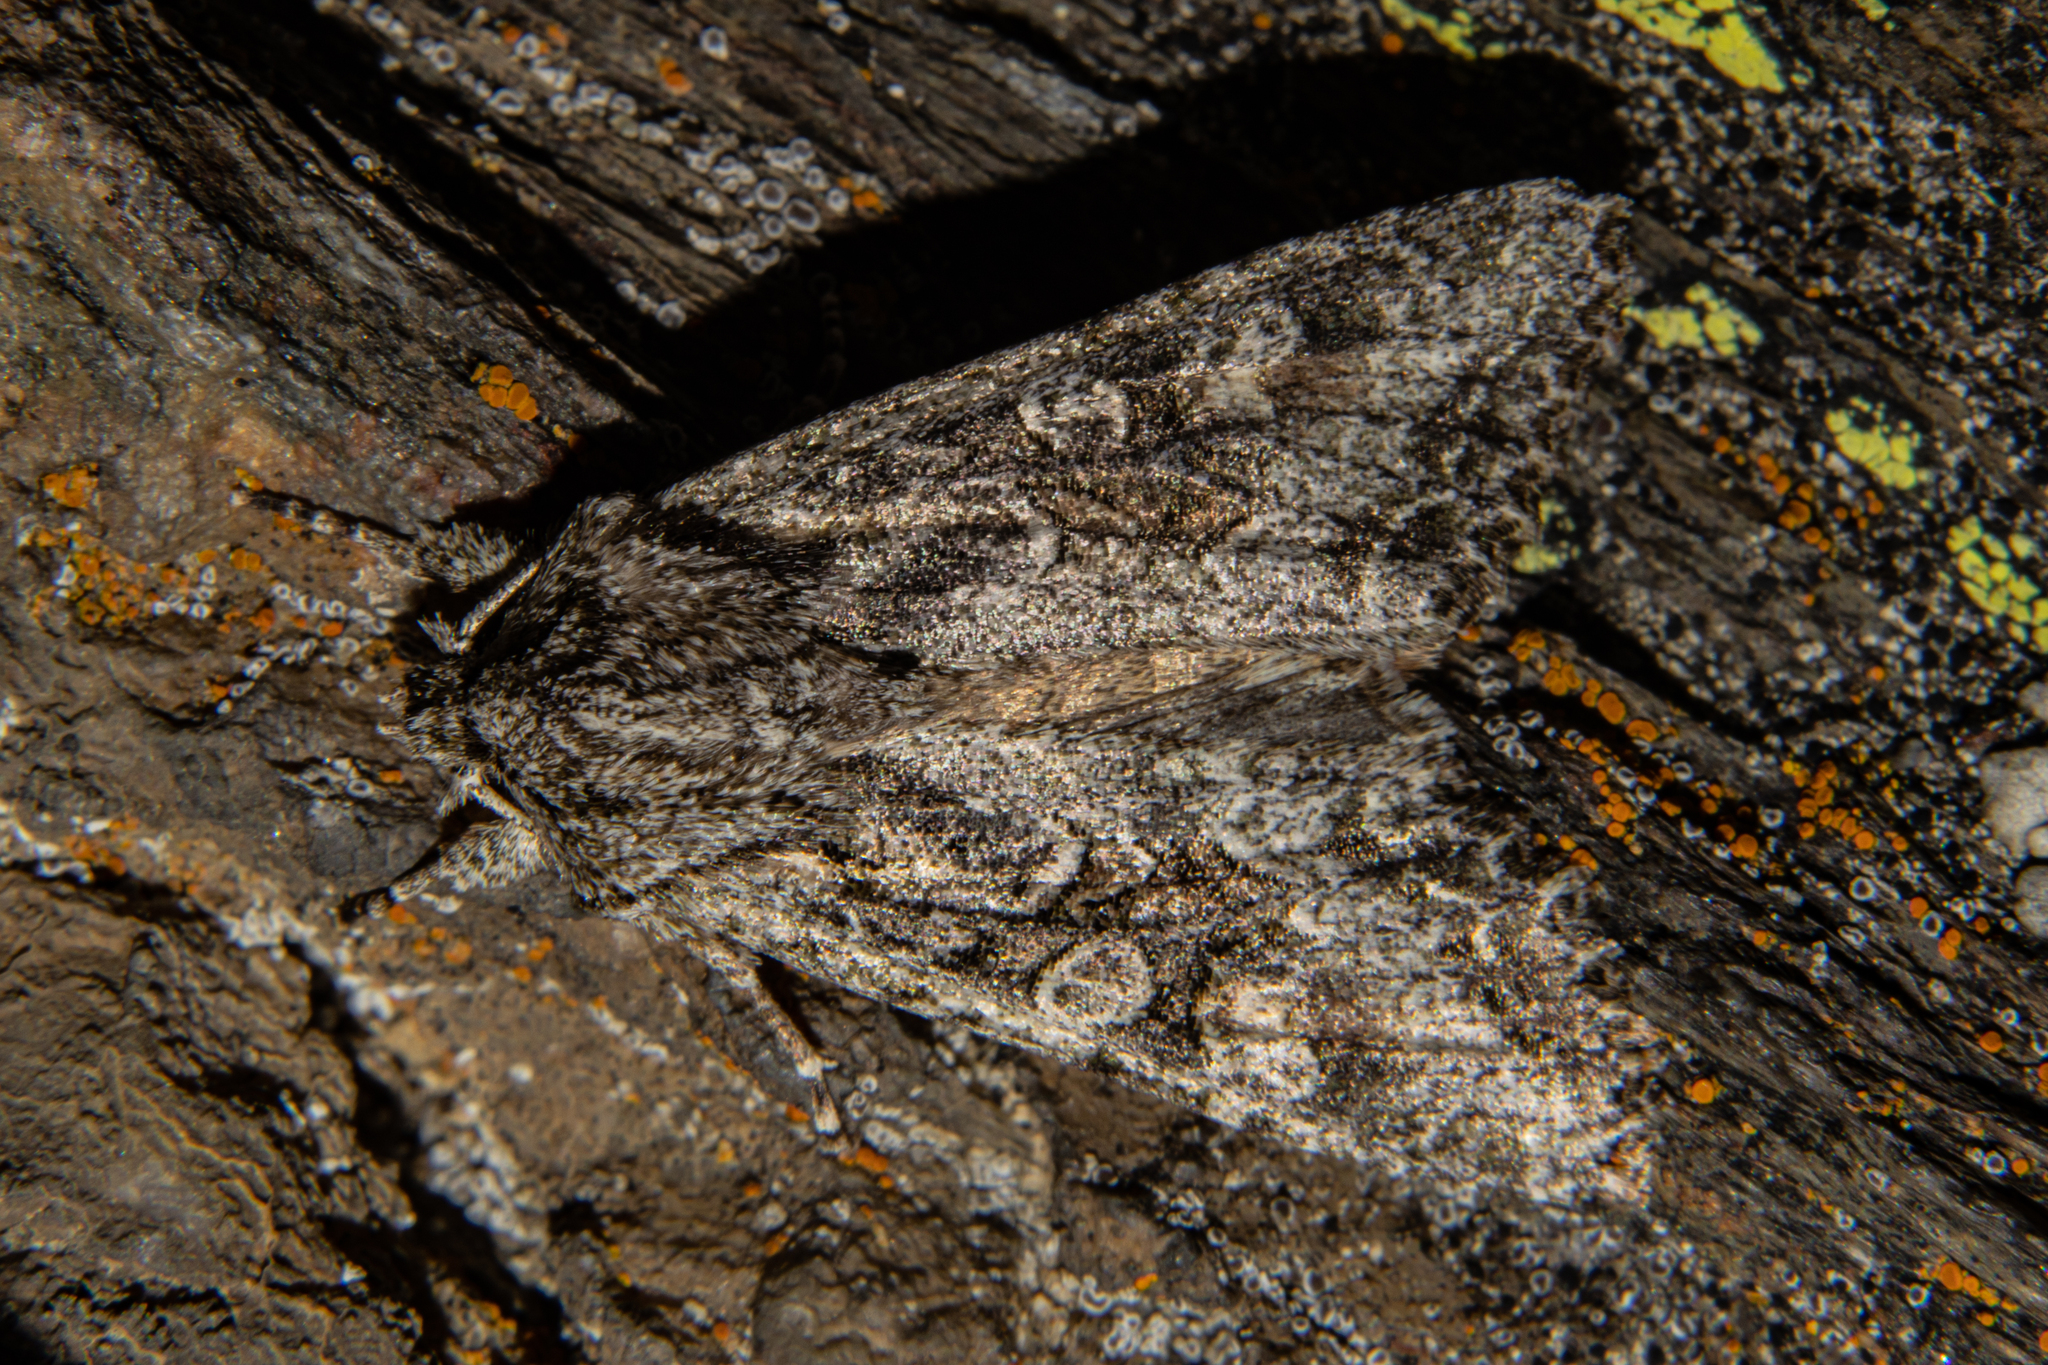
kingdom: Animalia
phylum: Arthropoda
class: Insecta
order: Lepidoptera
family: Noctuidae
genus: Ichneutica
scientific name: Ichneutica mutans
